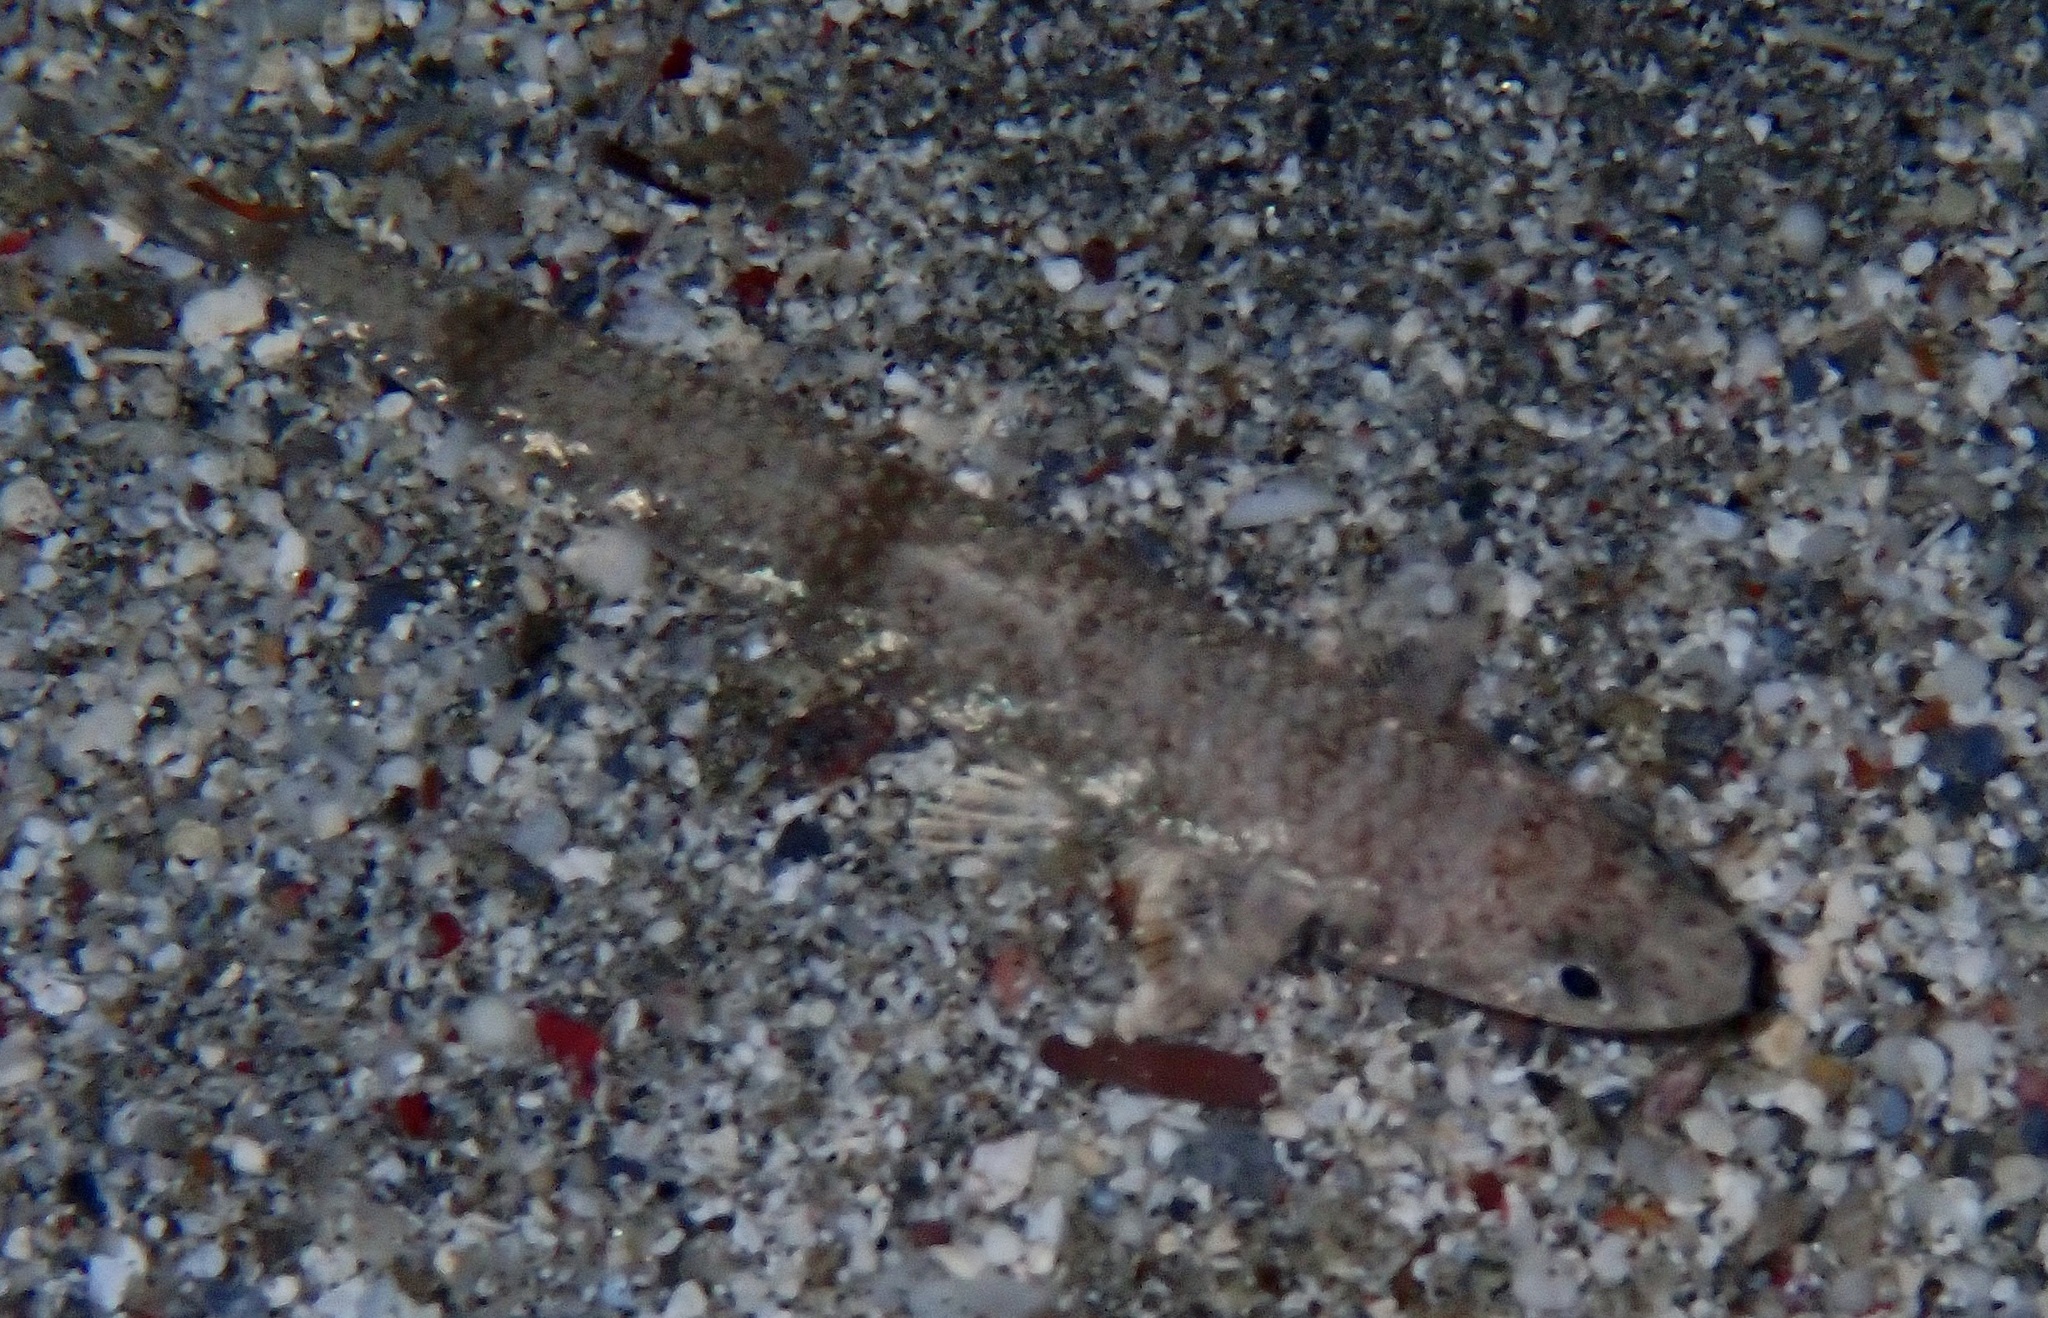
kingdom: Animalia
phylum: Chordata
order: Aulopiformes
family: Synodontidae
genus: Saurida
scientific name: Saurida gracilis
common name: Slender lizardfish
